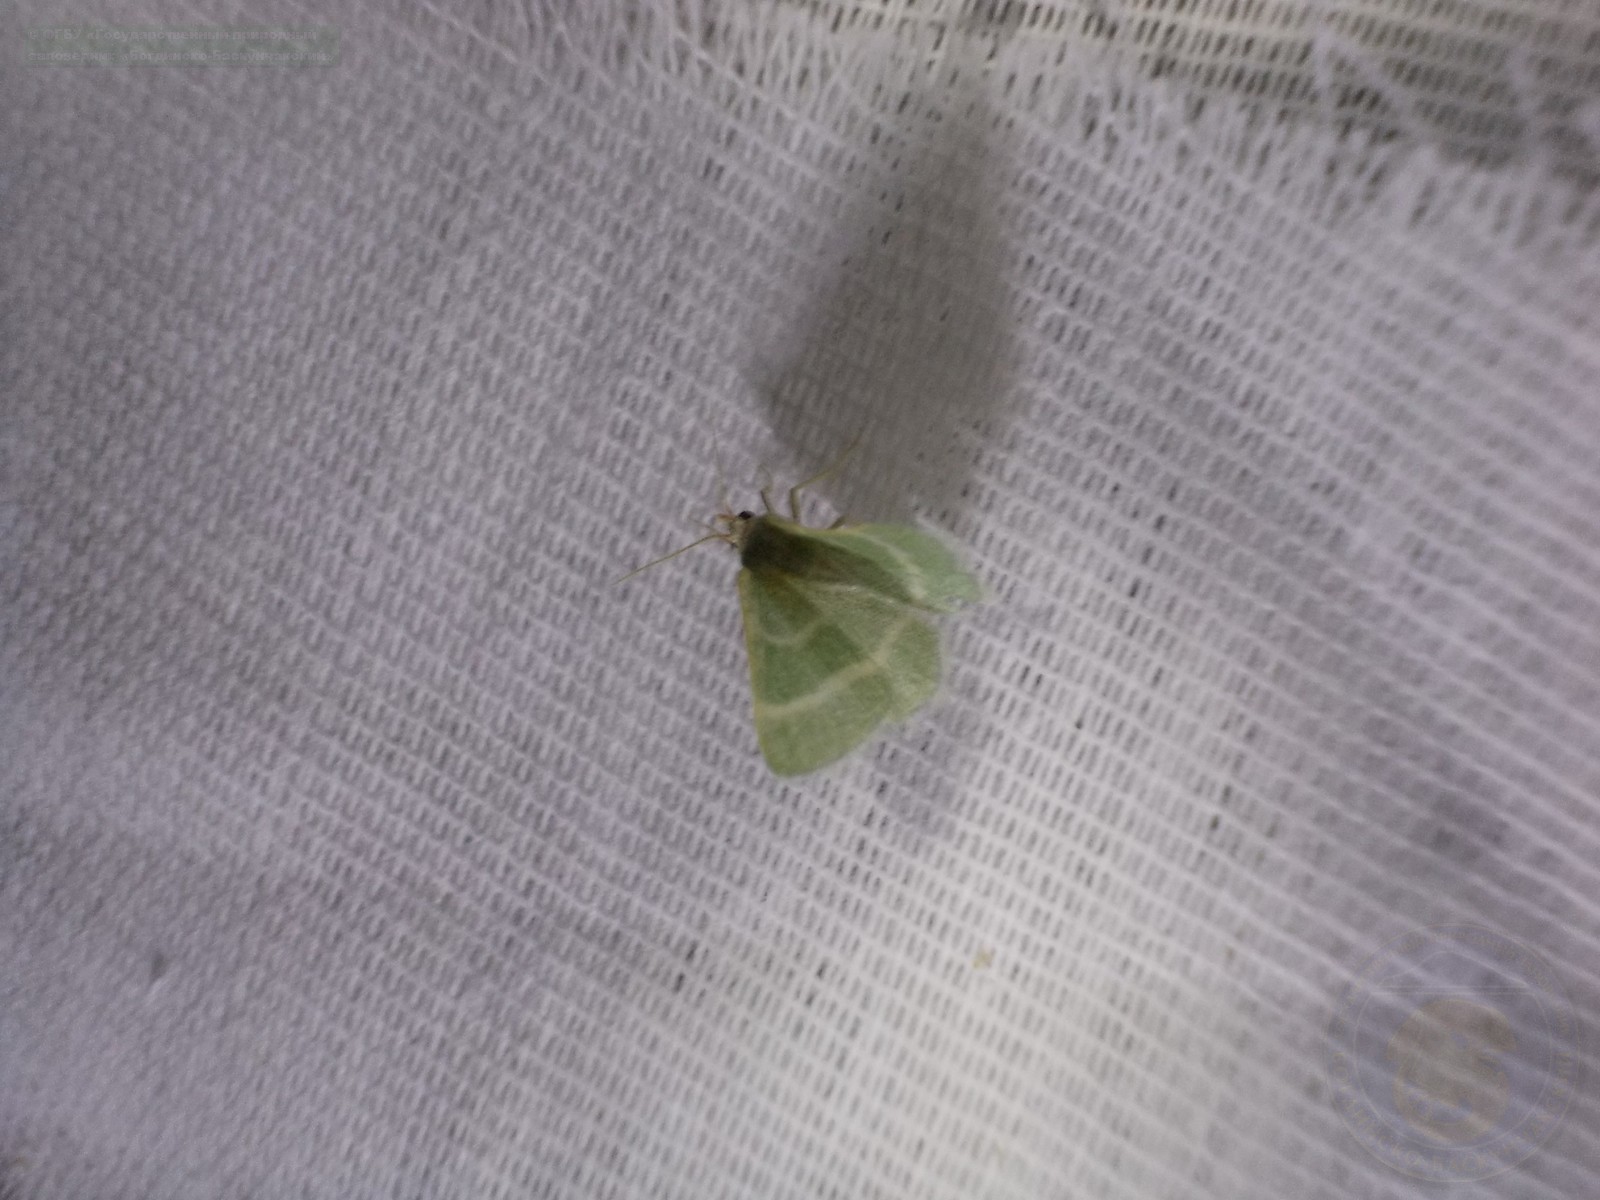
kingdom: Animalia
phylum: Arthropoda
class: Insecta
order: Lepidoptera
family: Geometridae
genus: Microloxia
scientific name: Microloxia herbaria
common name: Herb emerald
